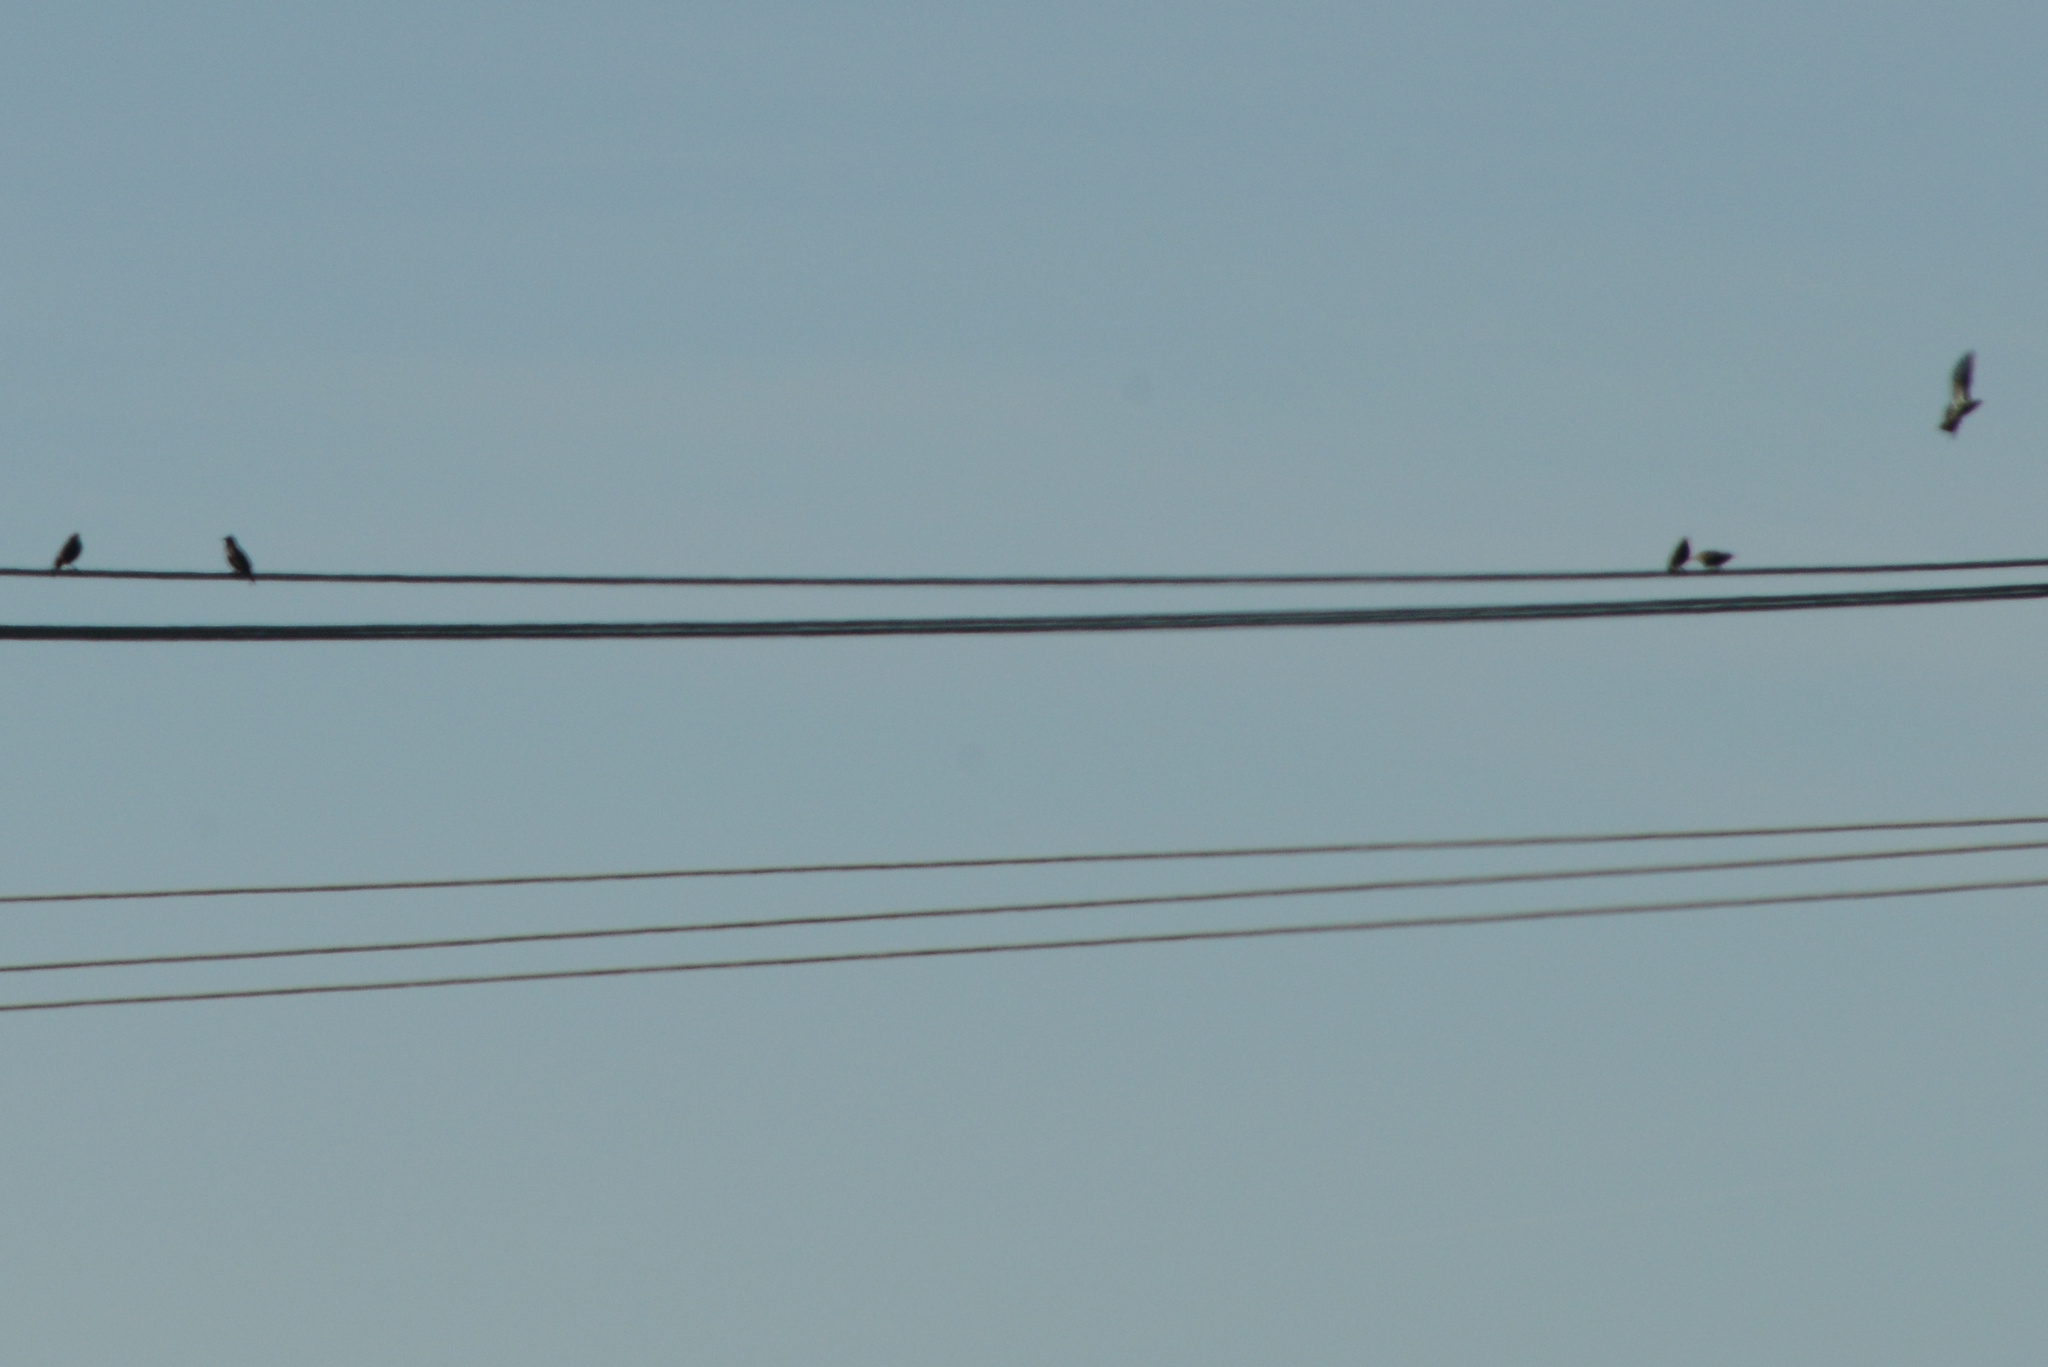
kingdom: Animalia
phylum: Chordata
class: Aves
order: Passeriformes
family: Sturnidae
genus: Sturnus
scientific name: Sturnus vulgaris
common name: Common starling
